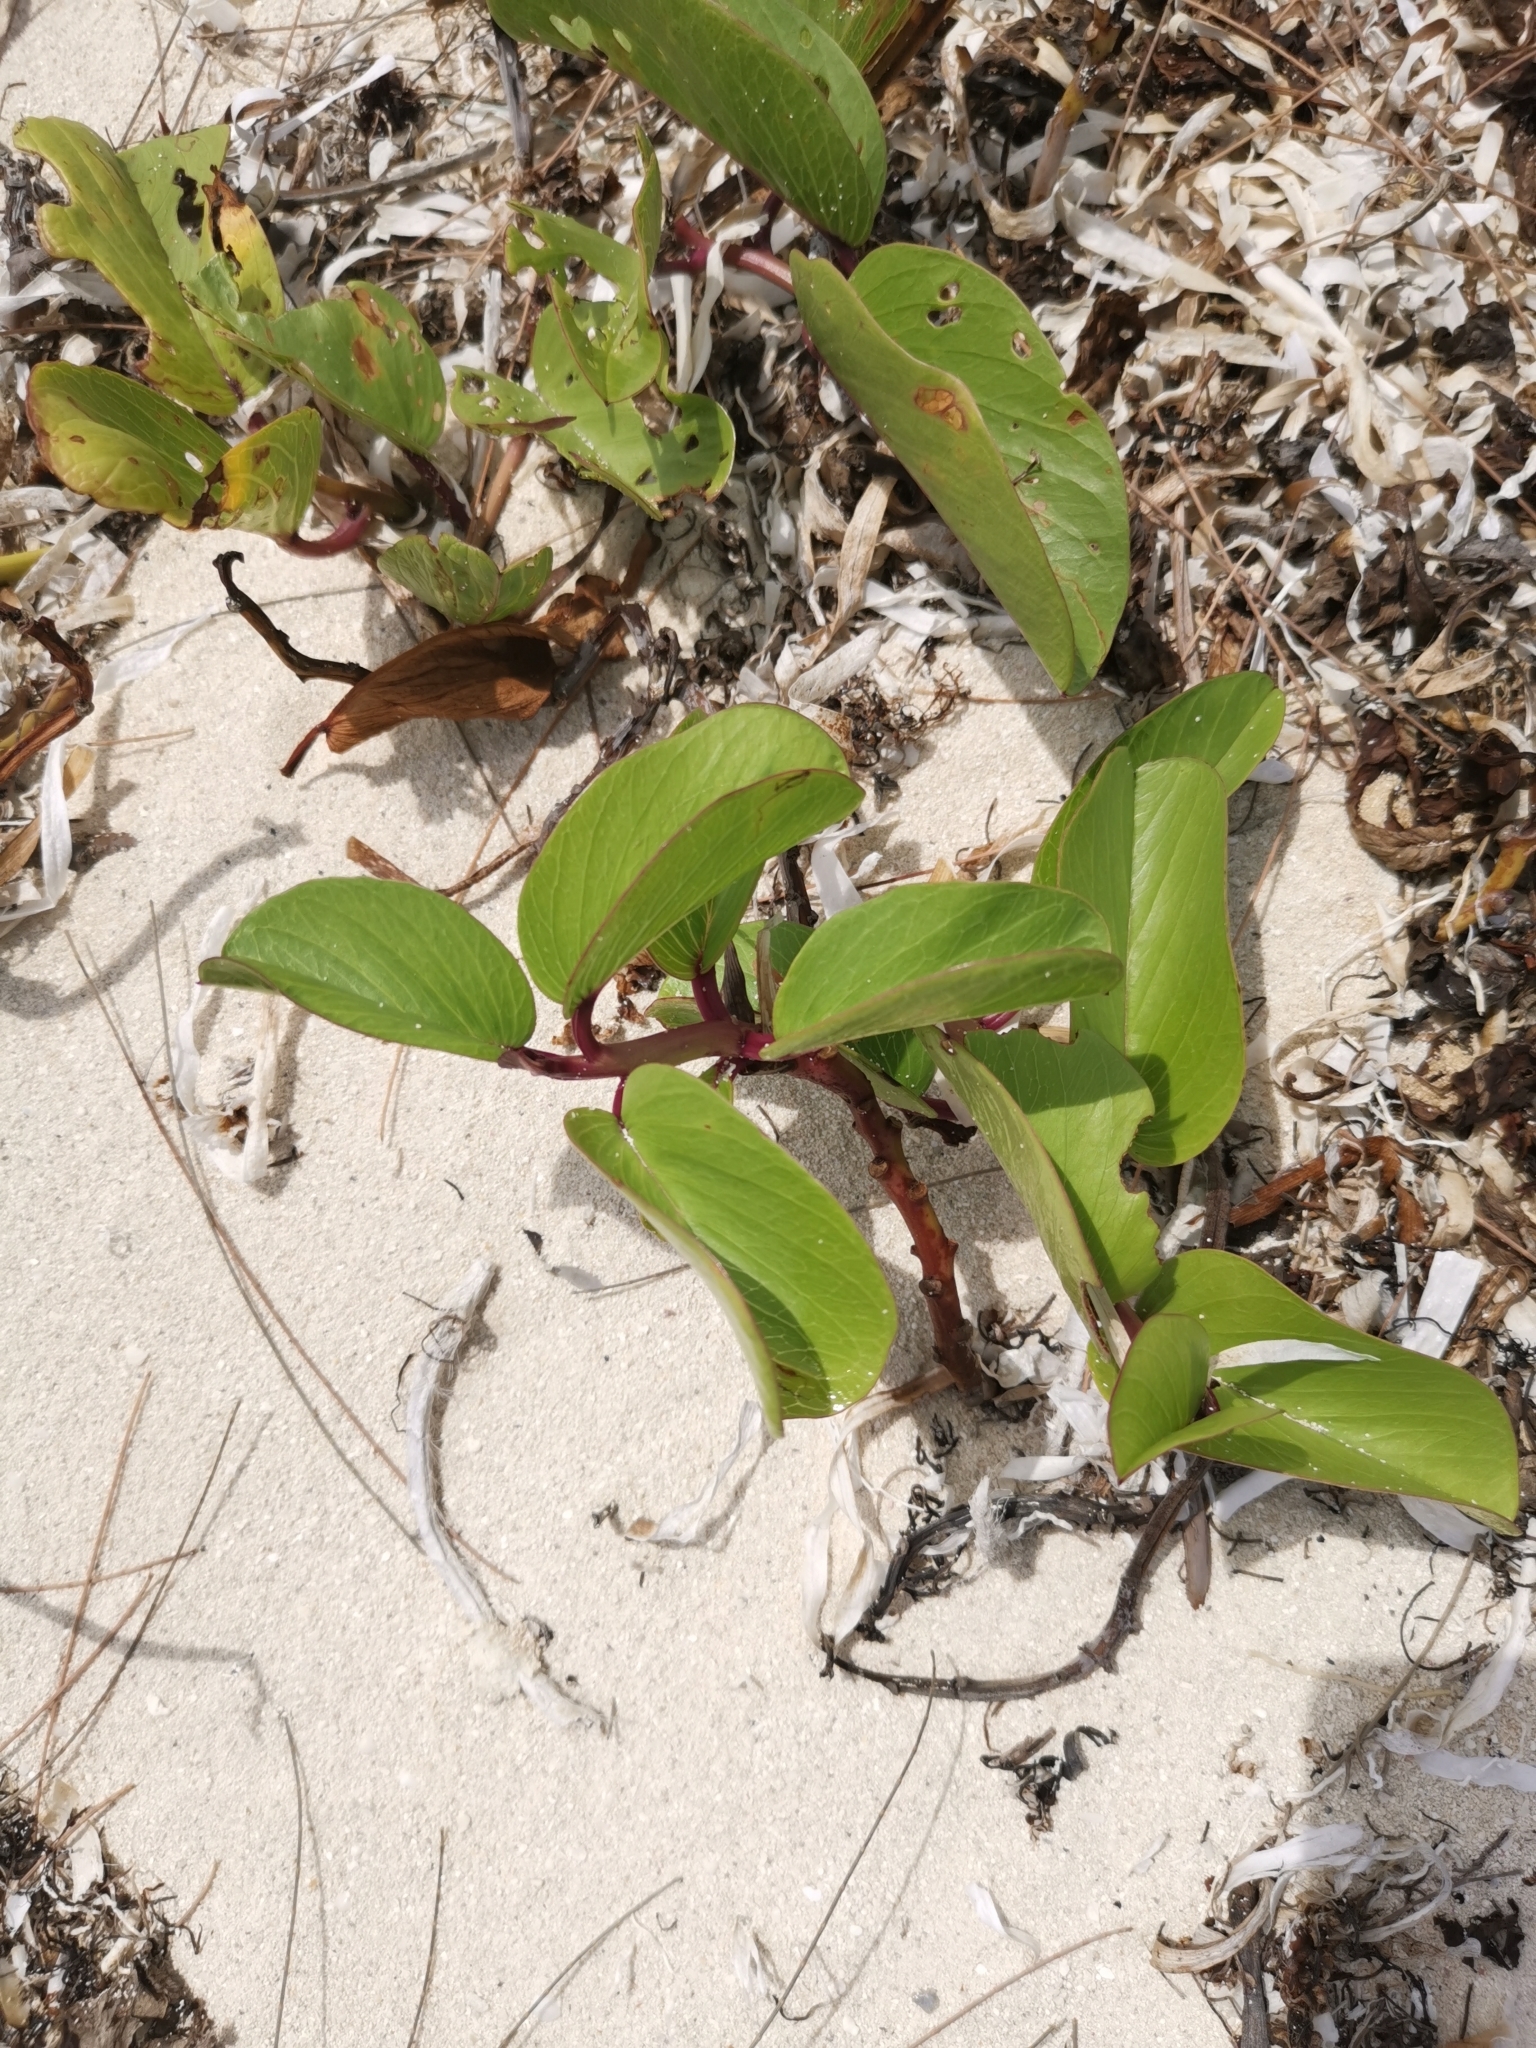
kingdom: Plantae
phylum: Tracheophyta
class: Magnoliopsida
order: Solanales
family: Convolvulaceae
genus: Ipomoea
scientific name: Ipomoea pes-caprae
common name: Beach morning glory
